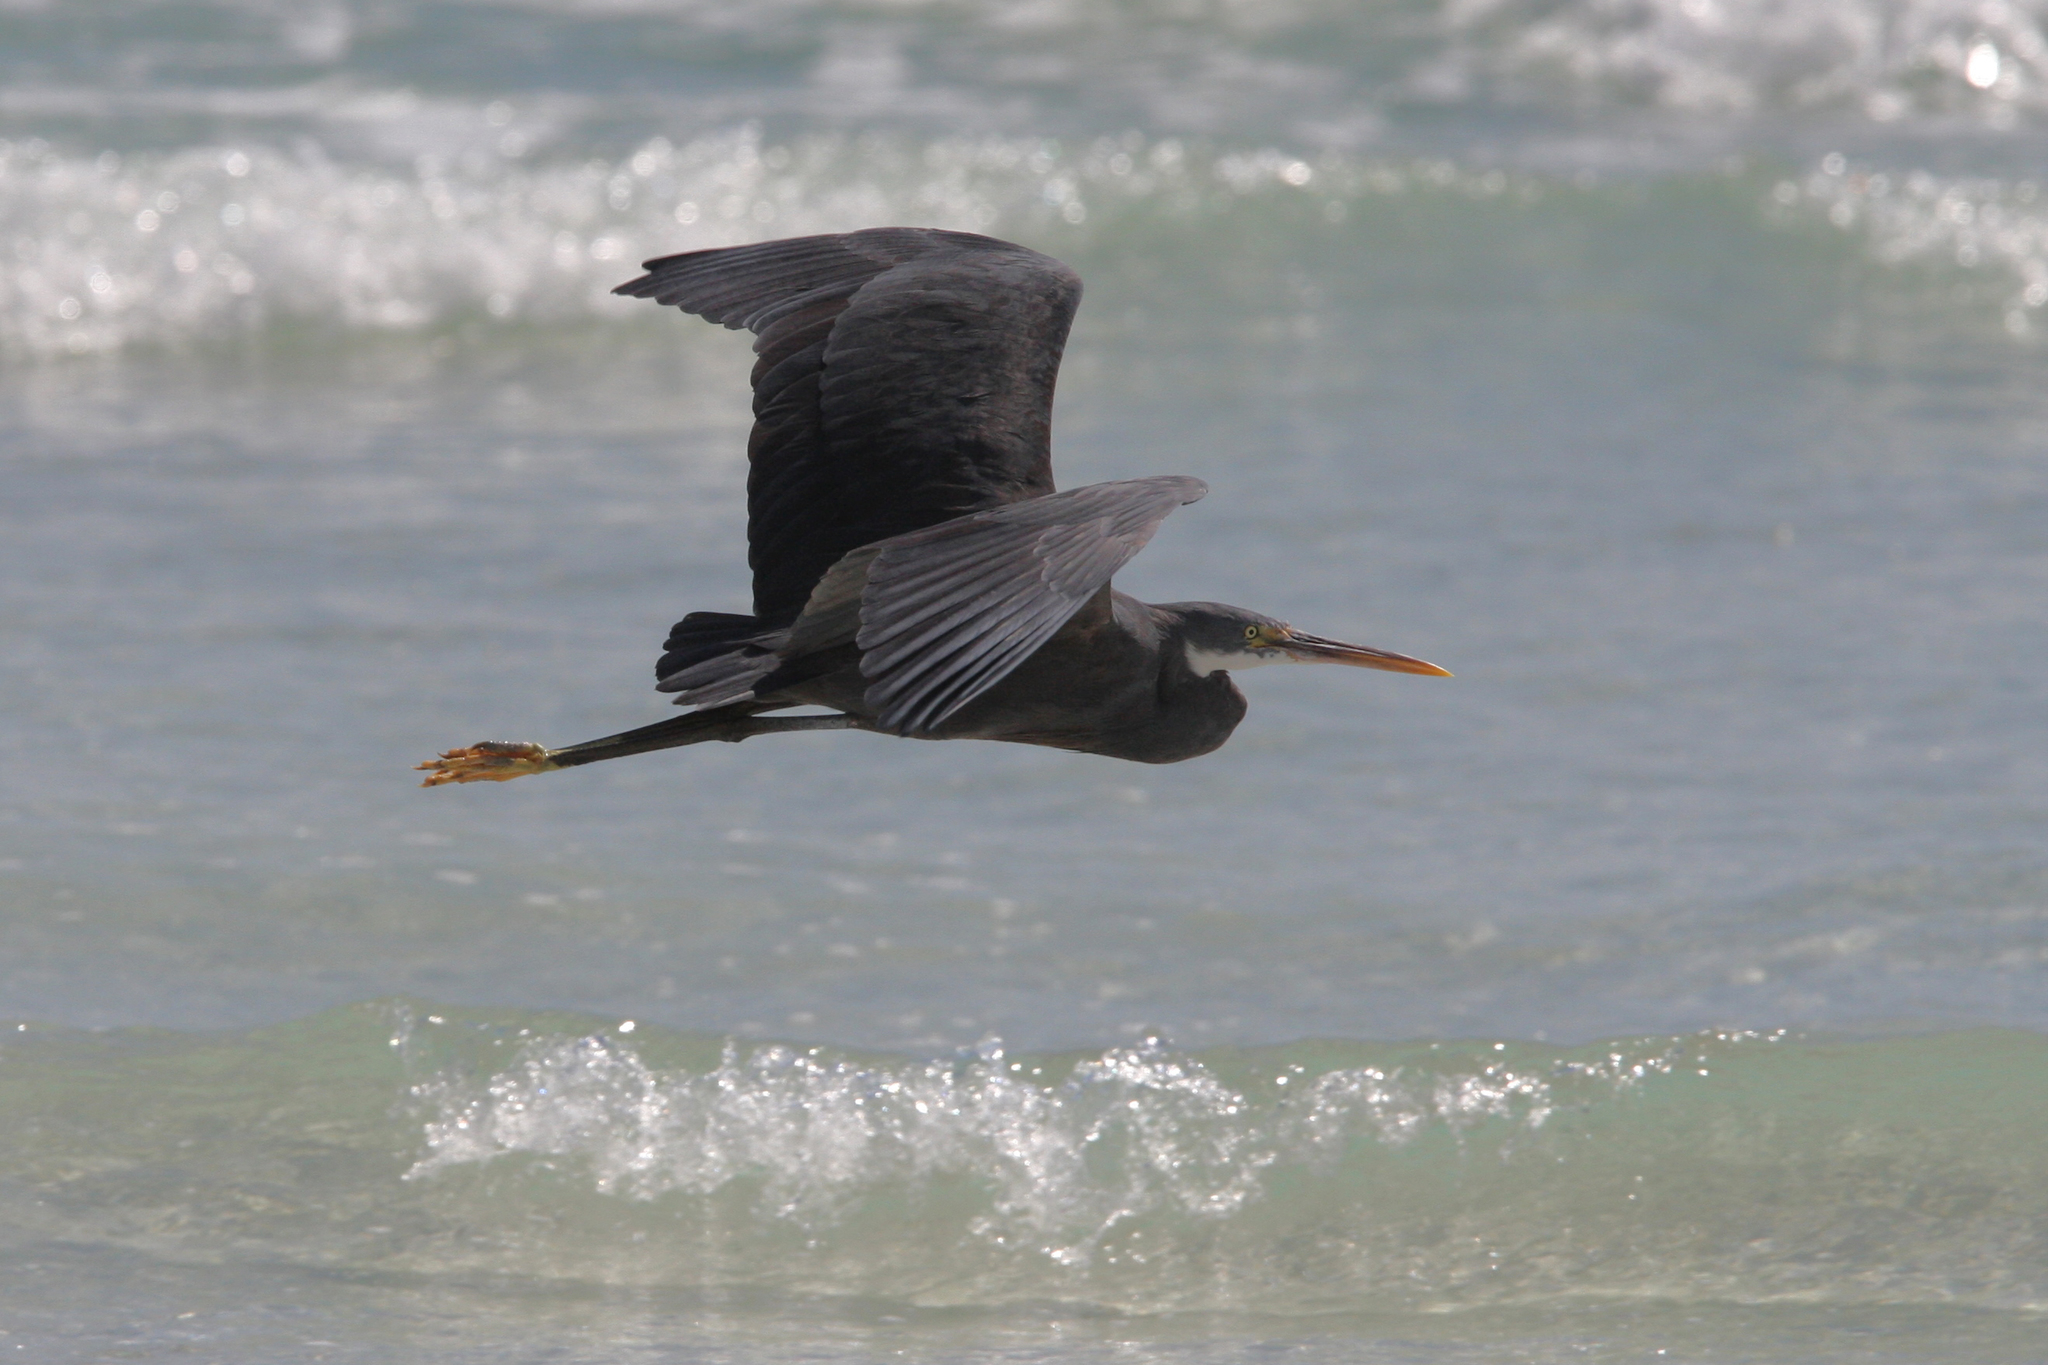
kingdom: Animalia
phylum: Chordata
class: Aves
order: Pelecaniformes
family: Ardeidae
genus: Egretta
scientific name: Egretta gularis
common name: Western reef-heron
